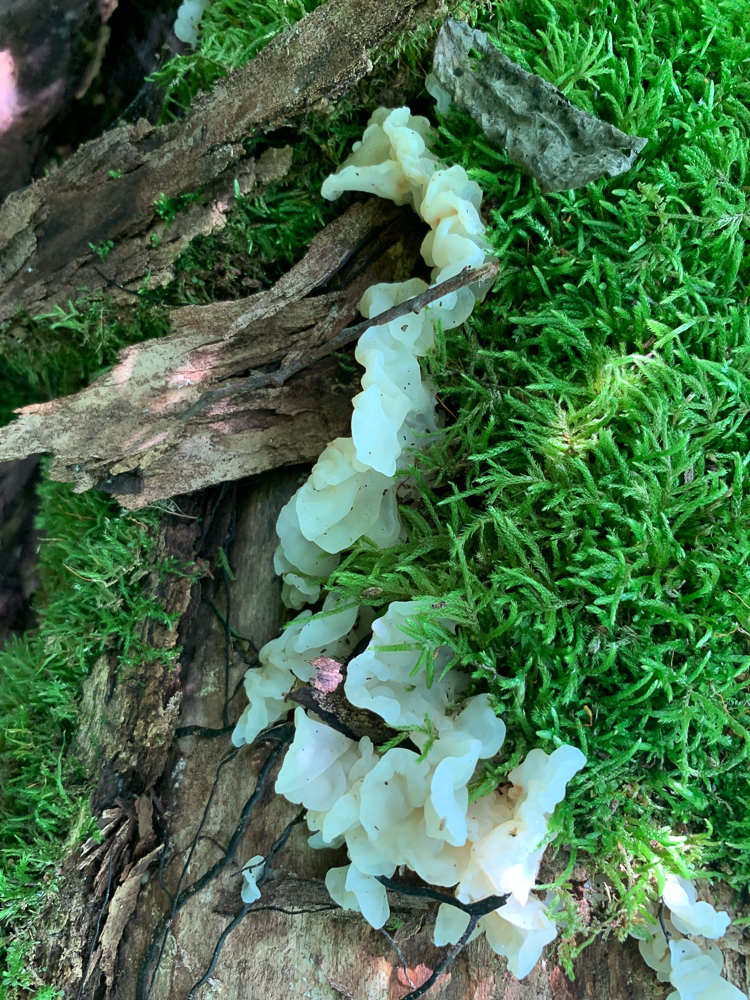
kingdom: Fungi
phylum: Basidiomycota
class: Agaricomycetes
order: Auriculariales
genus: Ductifera
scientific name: Ductifera pululahuana
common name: White jelly fungus
